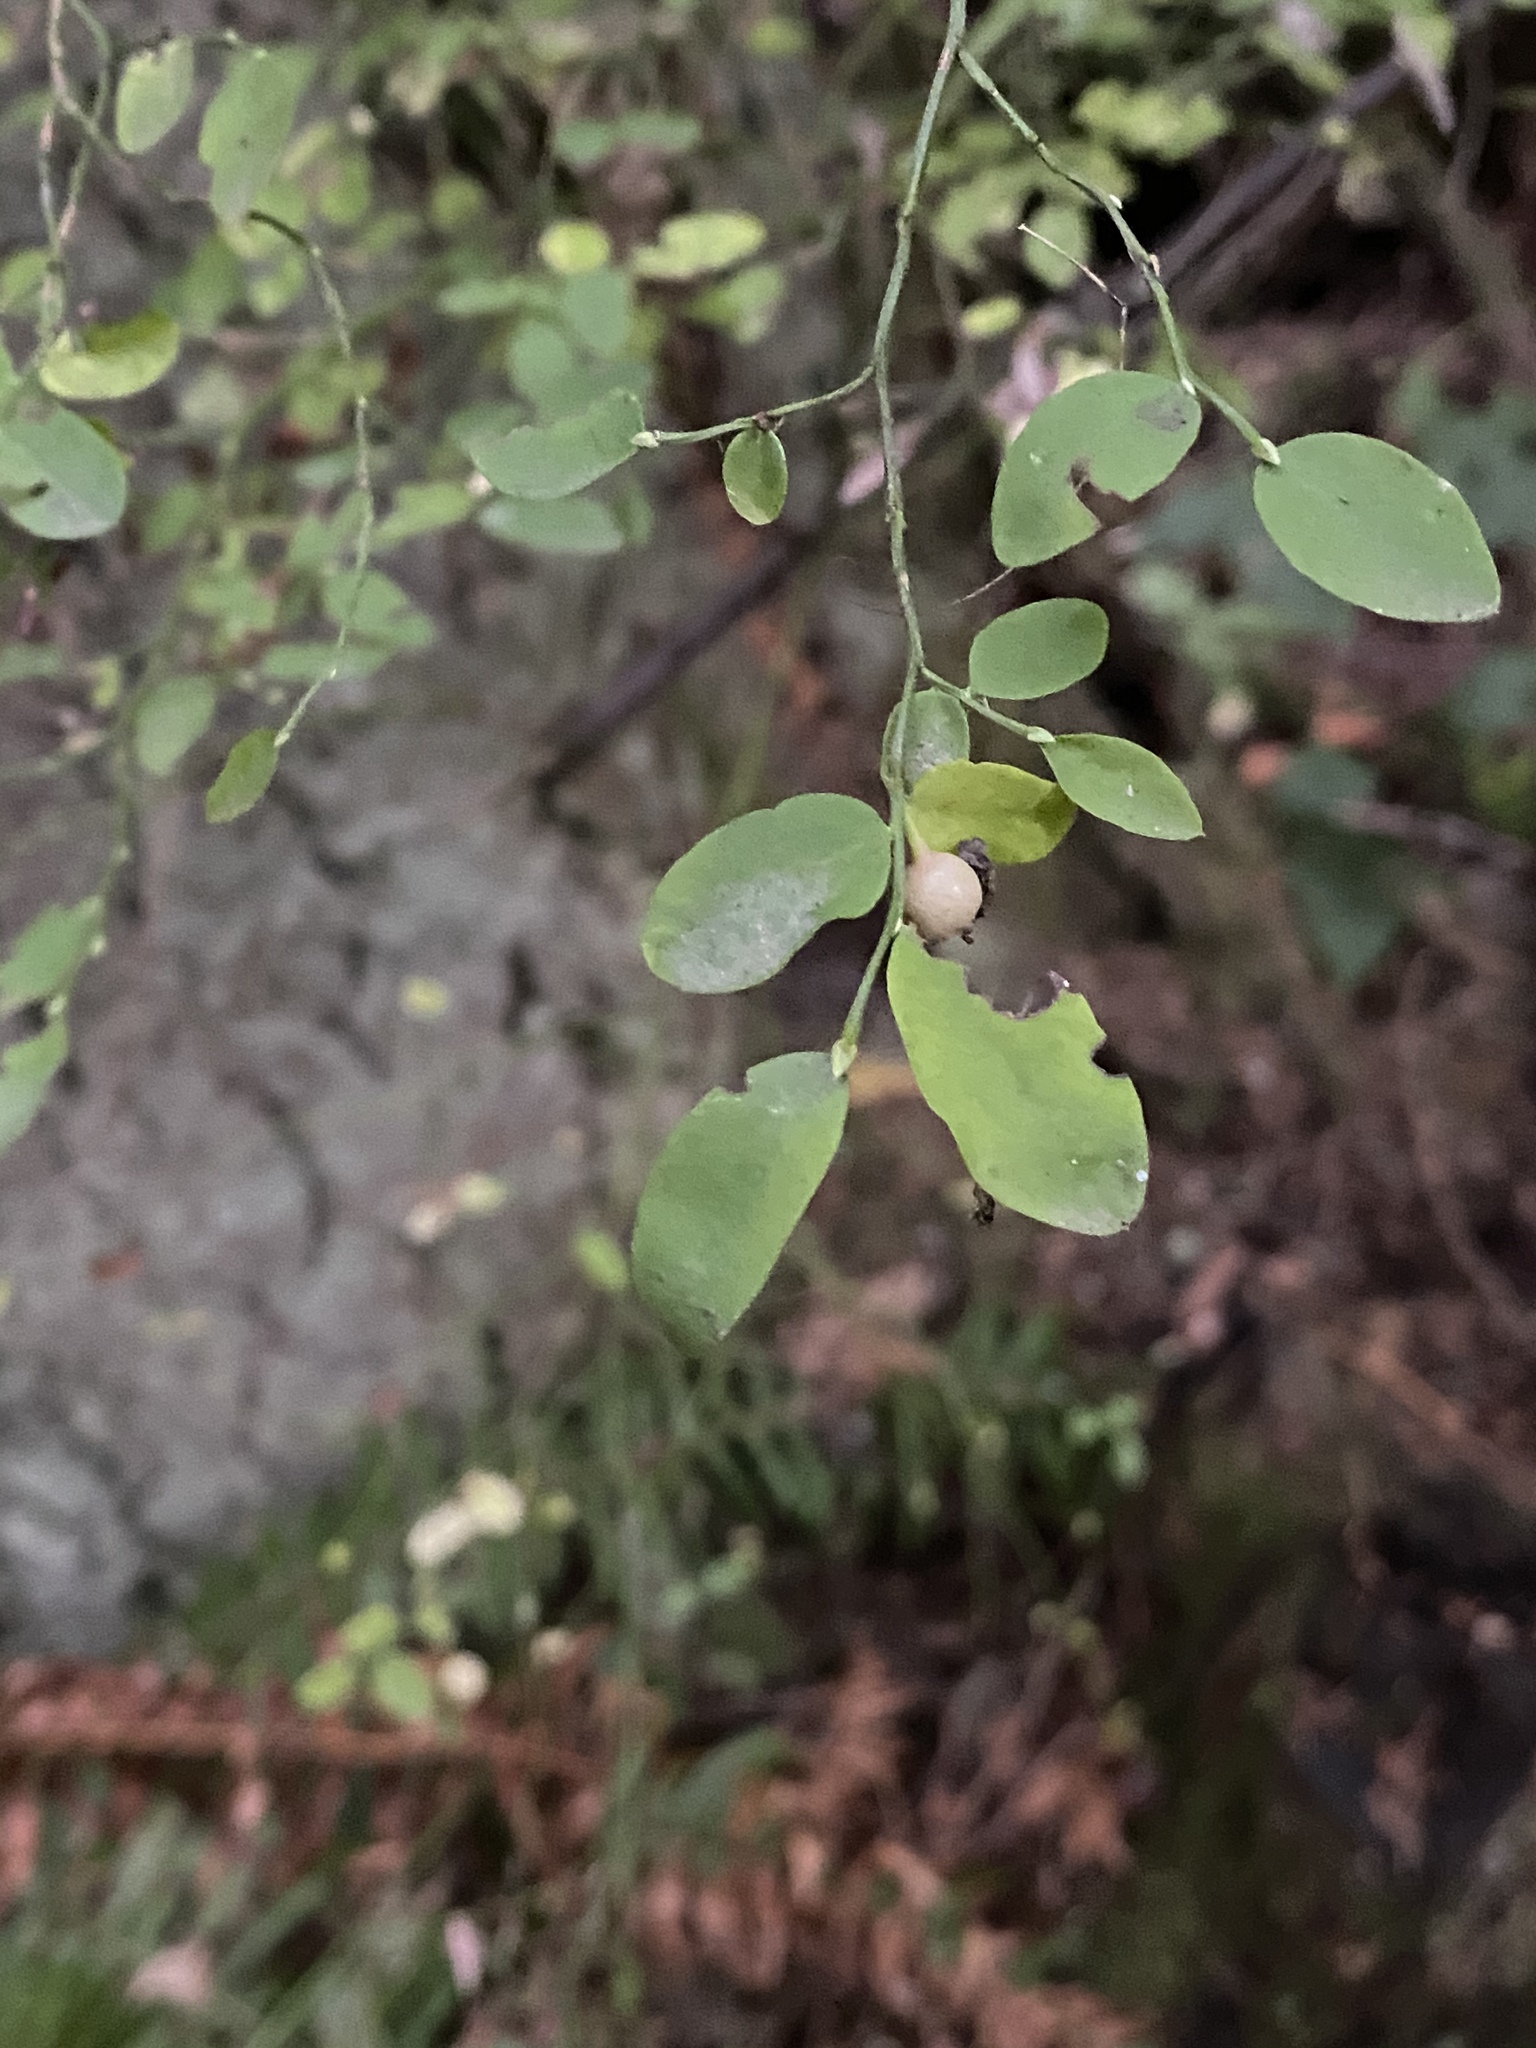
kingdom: Plantae
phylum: Tracheophyta
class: Magnoliopsida
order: Ericales
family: Ericaceae
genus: Vaccinium
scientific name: Vaccinium parvifolium
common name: Red-huckleberry
